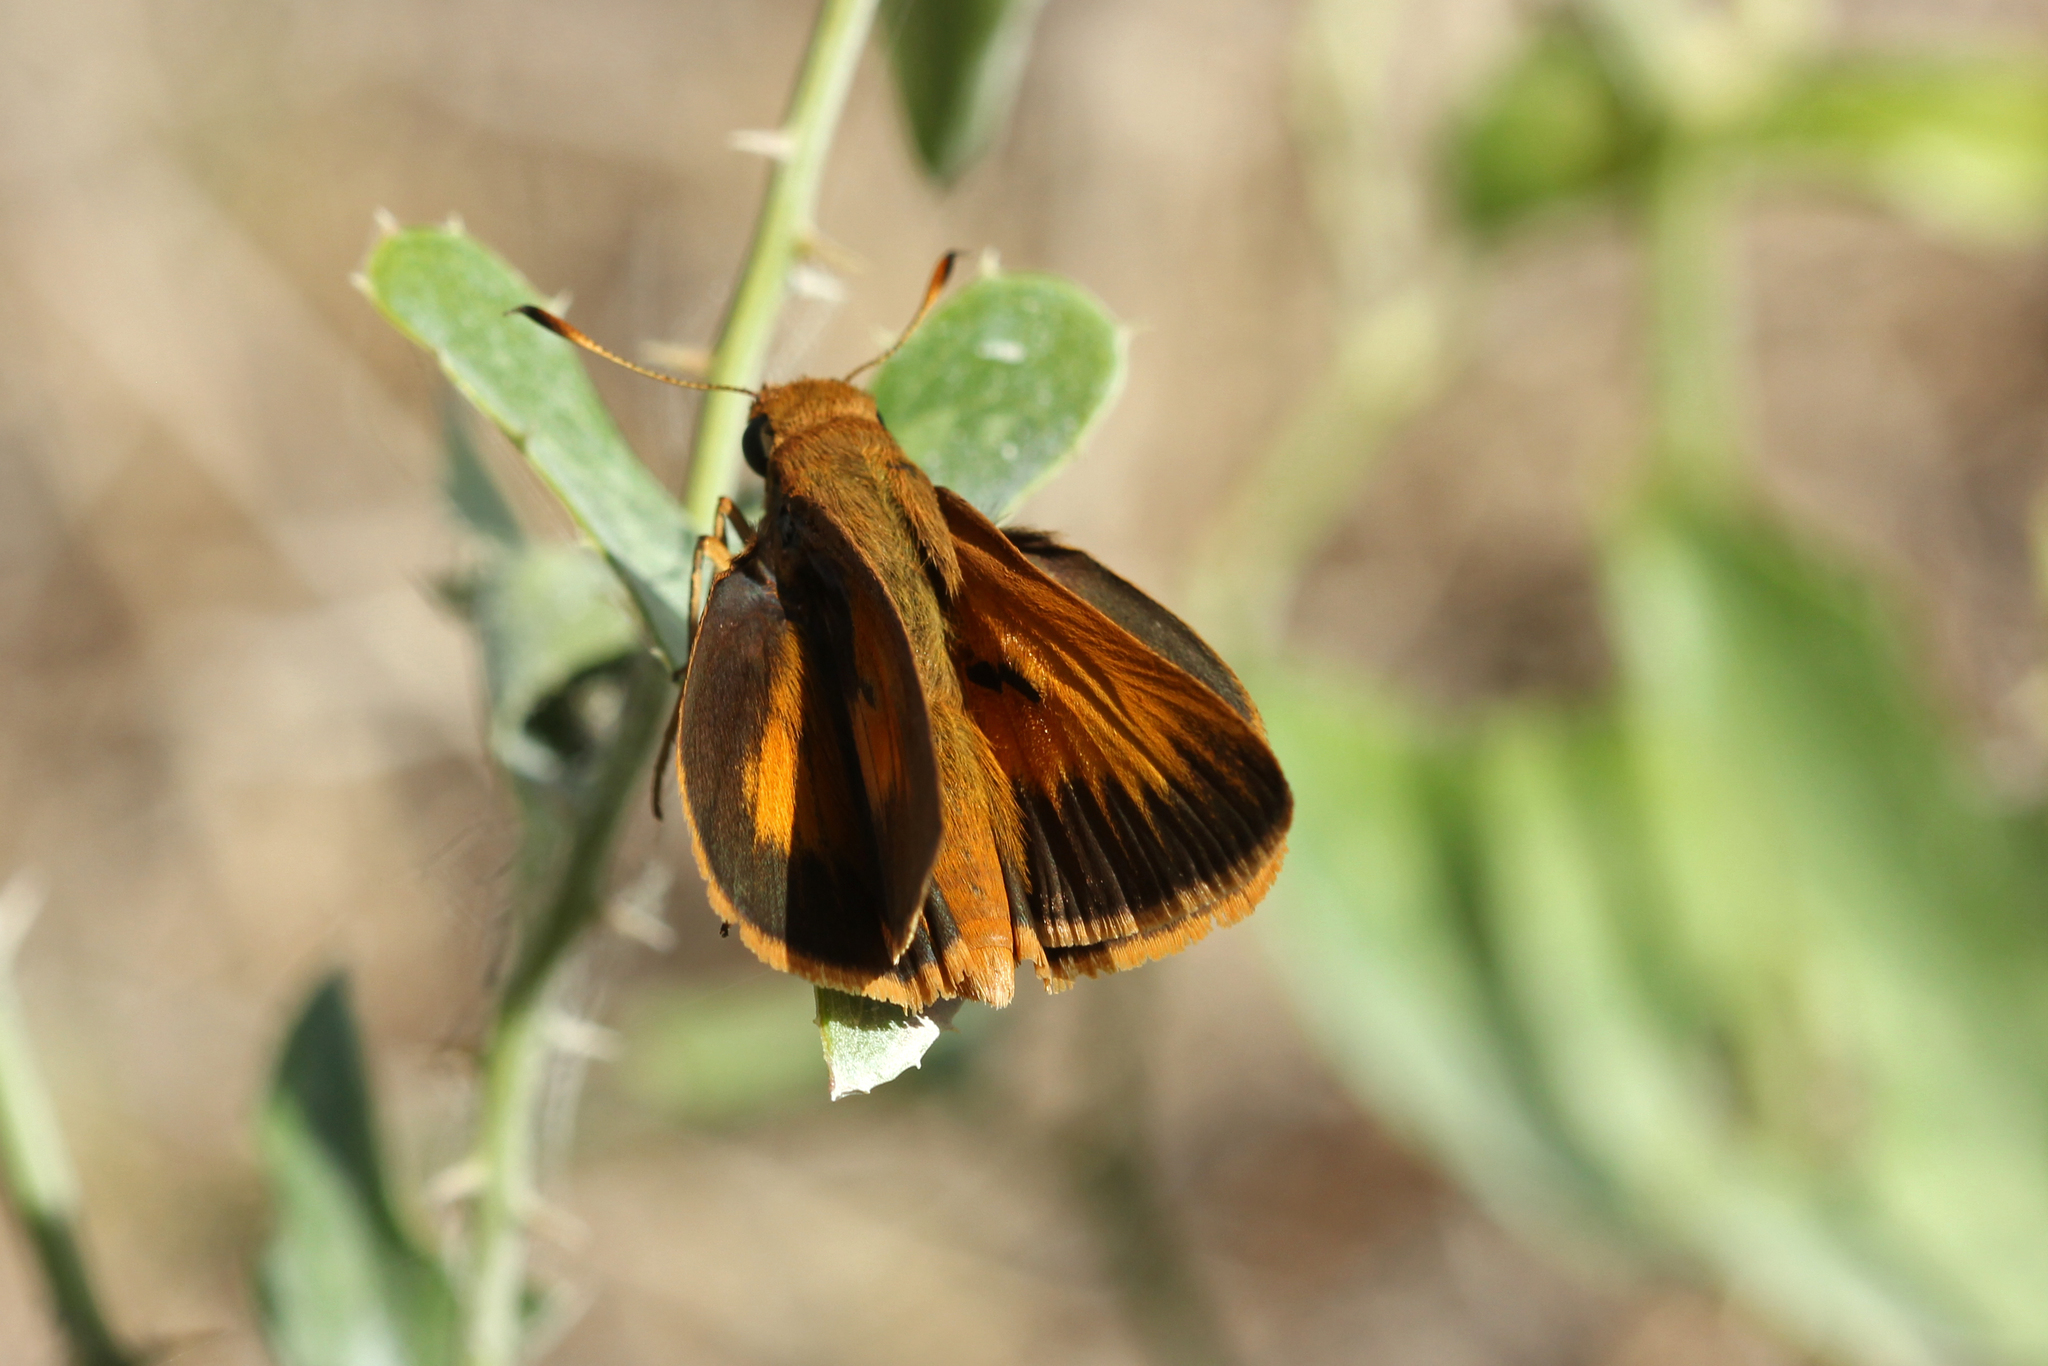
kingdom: Animalia
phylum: Arthropoda
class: Insecta
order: Lepidoptera
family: Hesperiidae
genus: Euphyes
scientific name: Euphyes pilatka
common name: Palatka skipper
